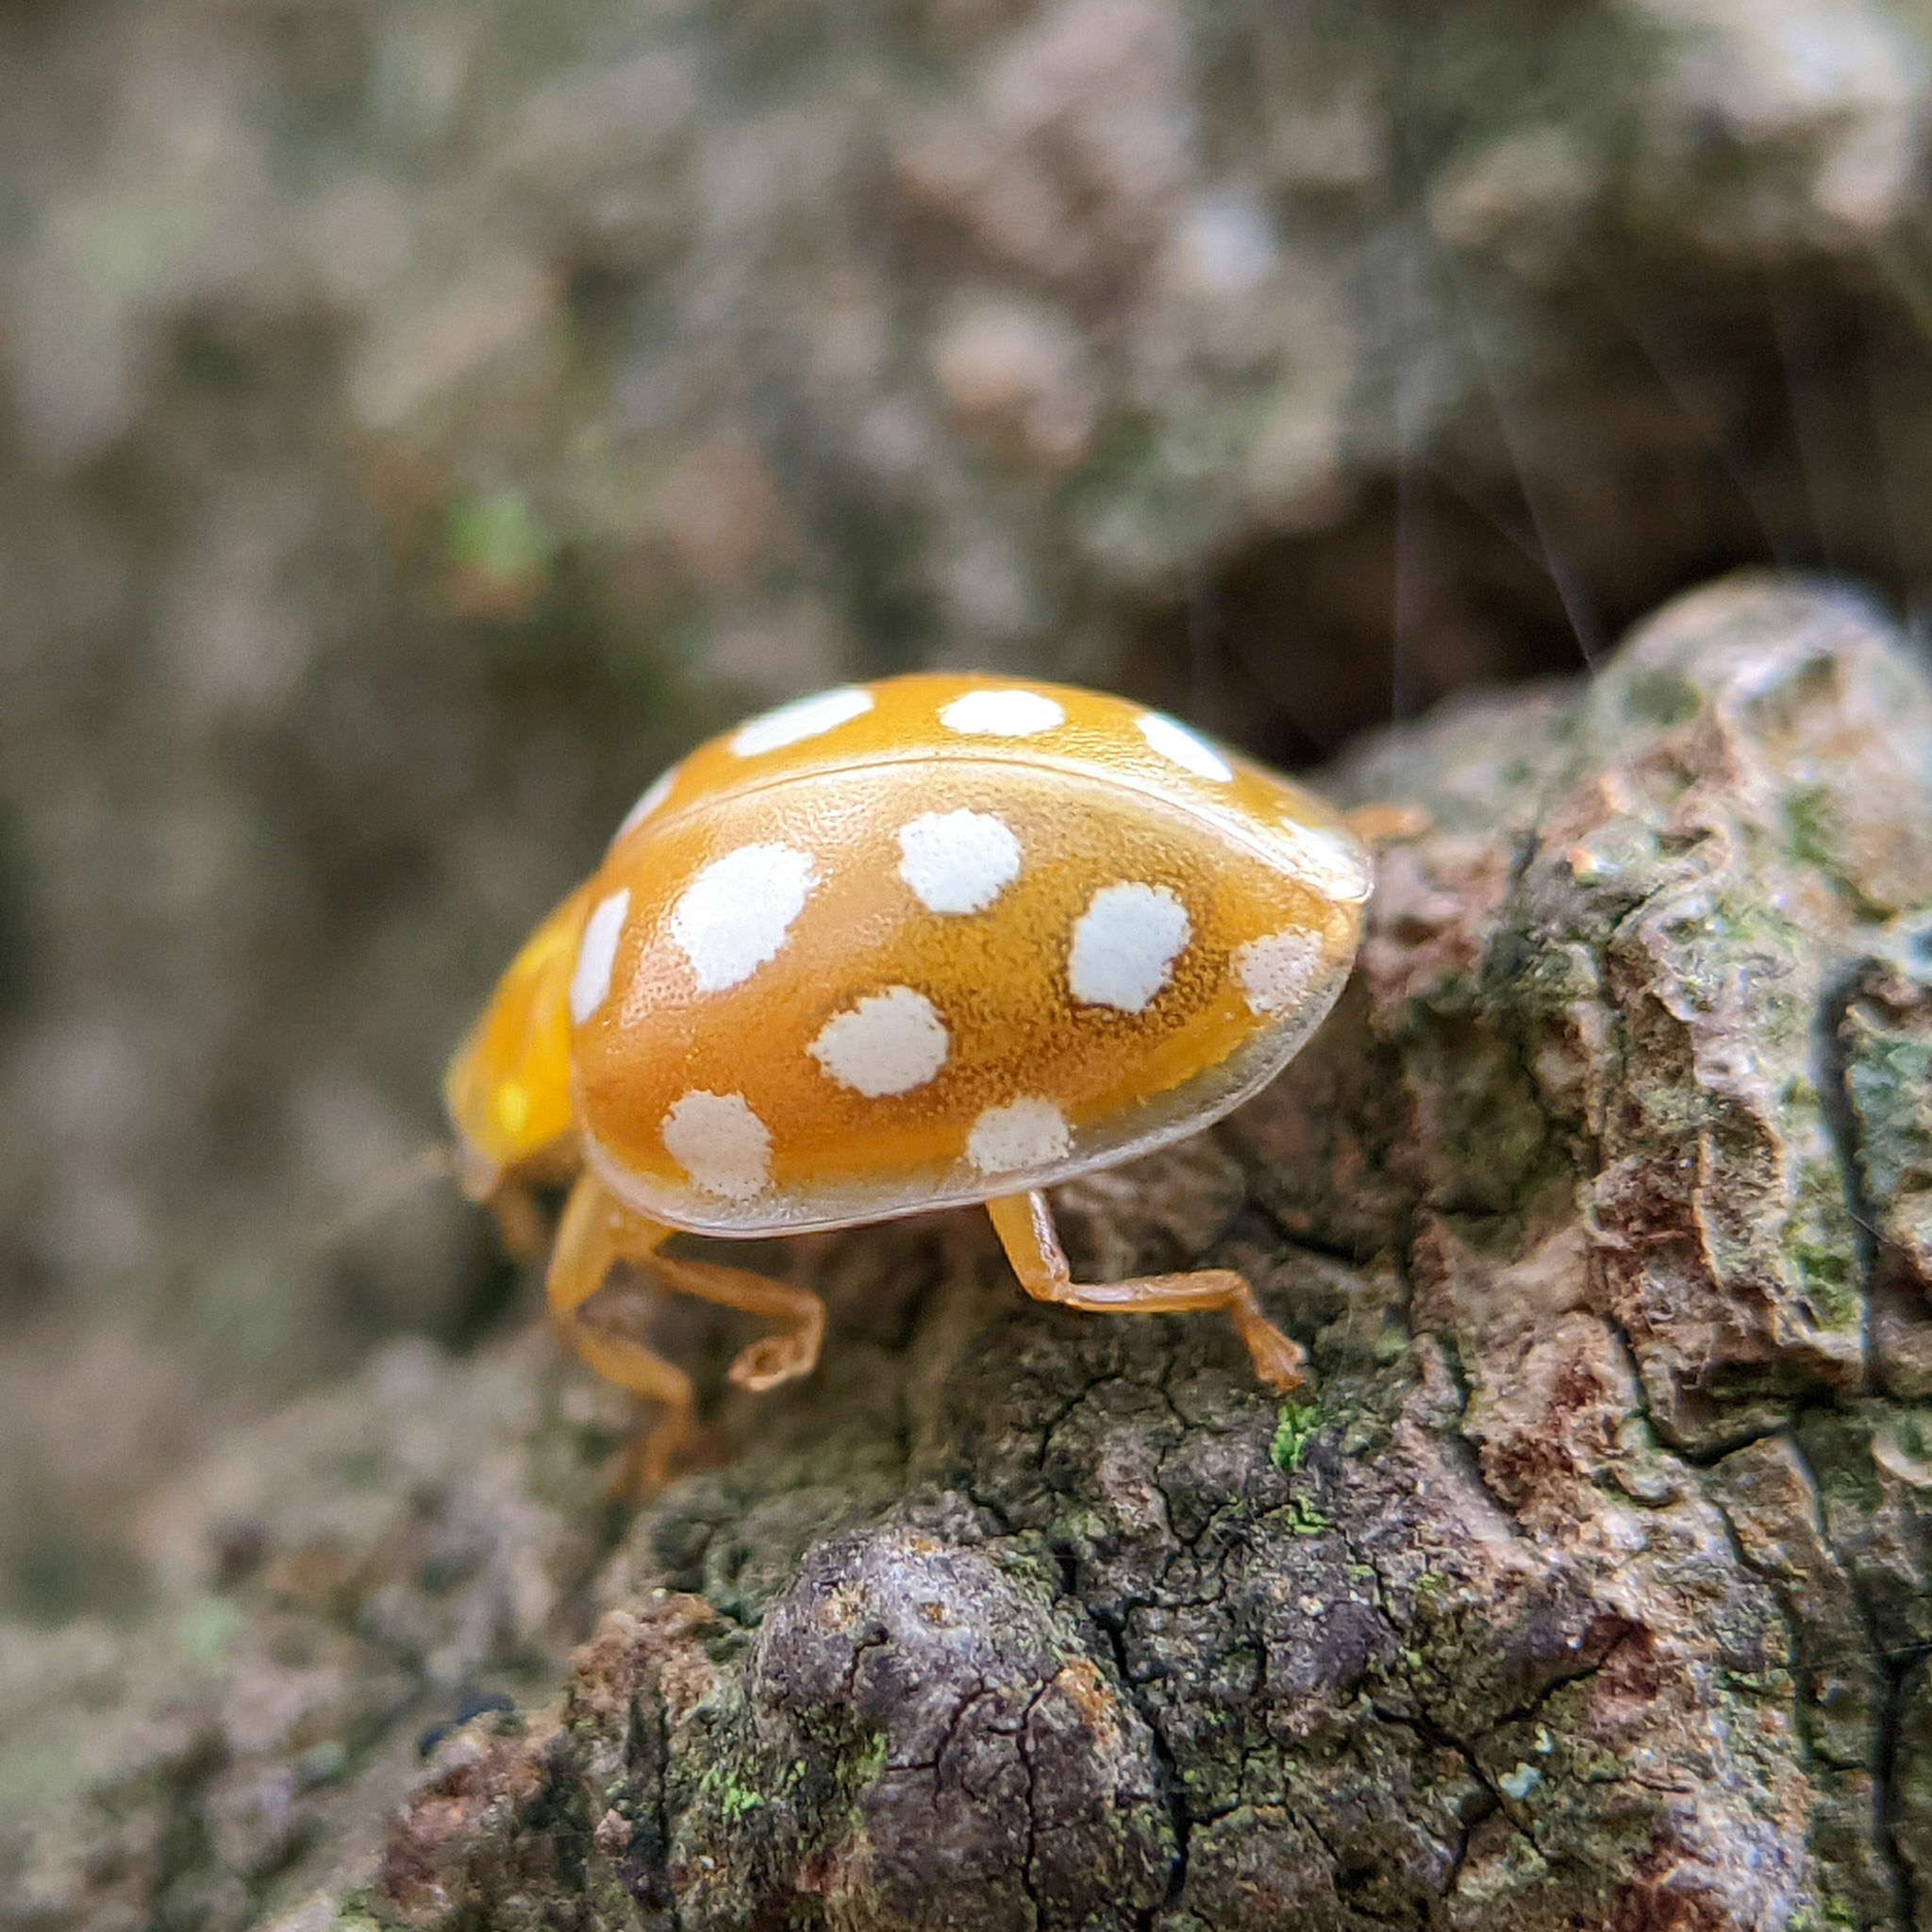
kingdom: Animalia
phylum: Arthropoda
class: Insecta
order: Coleoptera
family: Coccinellidae
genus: Halyzia
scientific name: Halyzia sedecimguttata
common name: Orange ladybird
